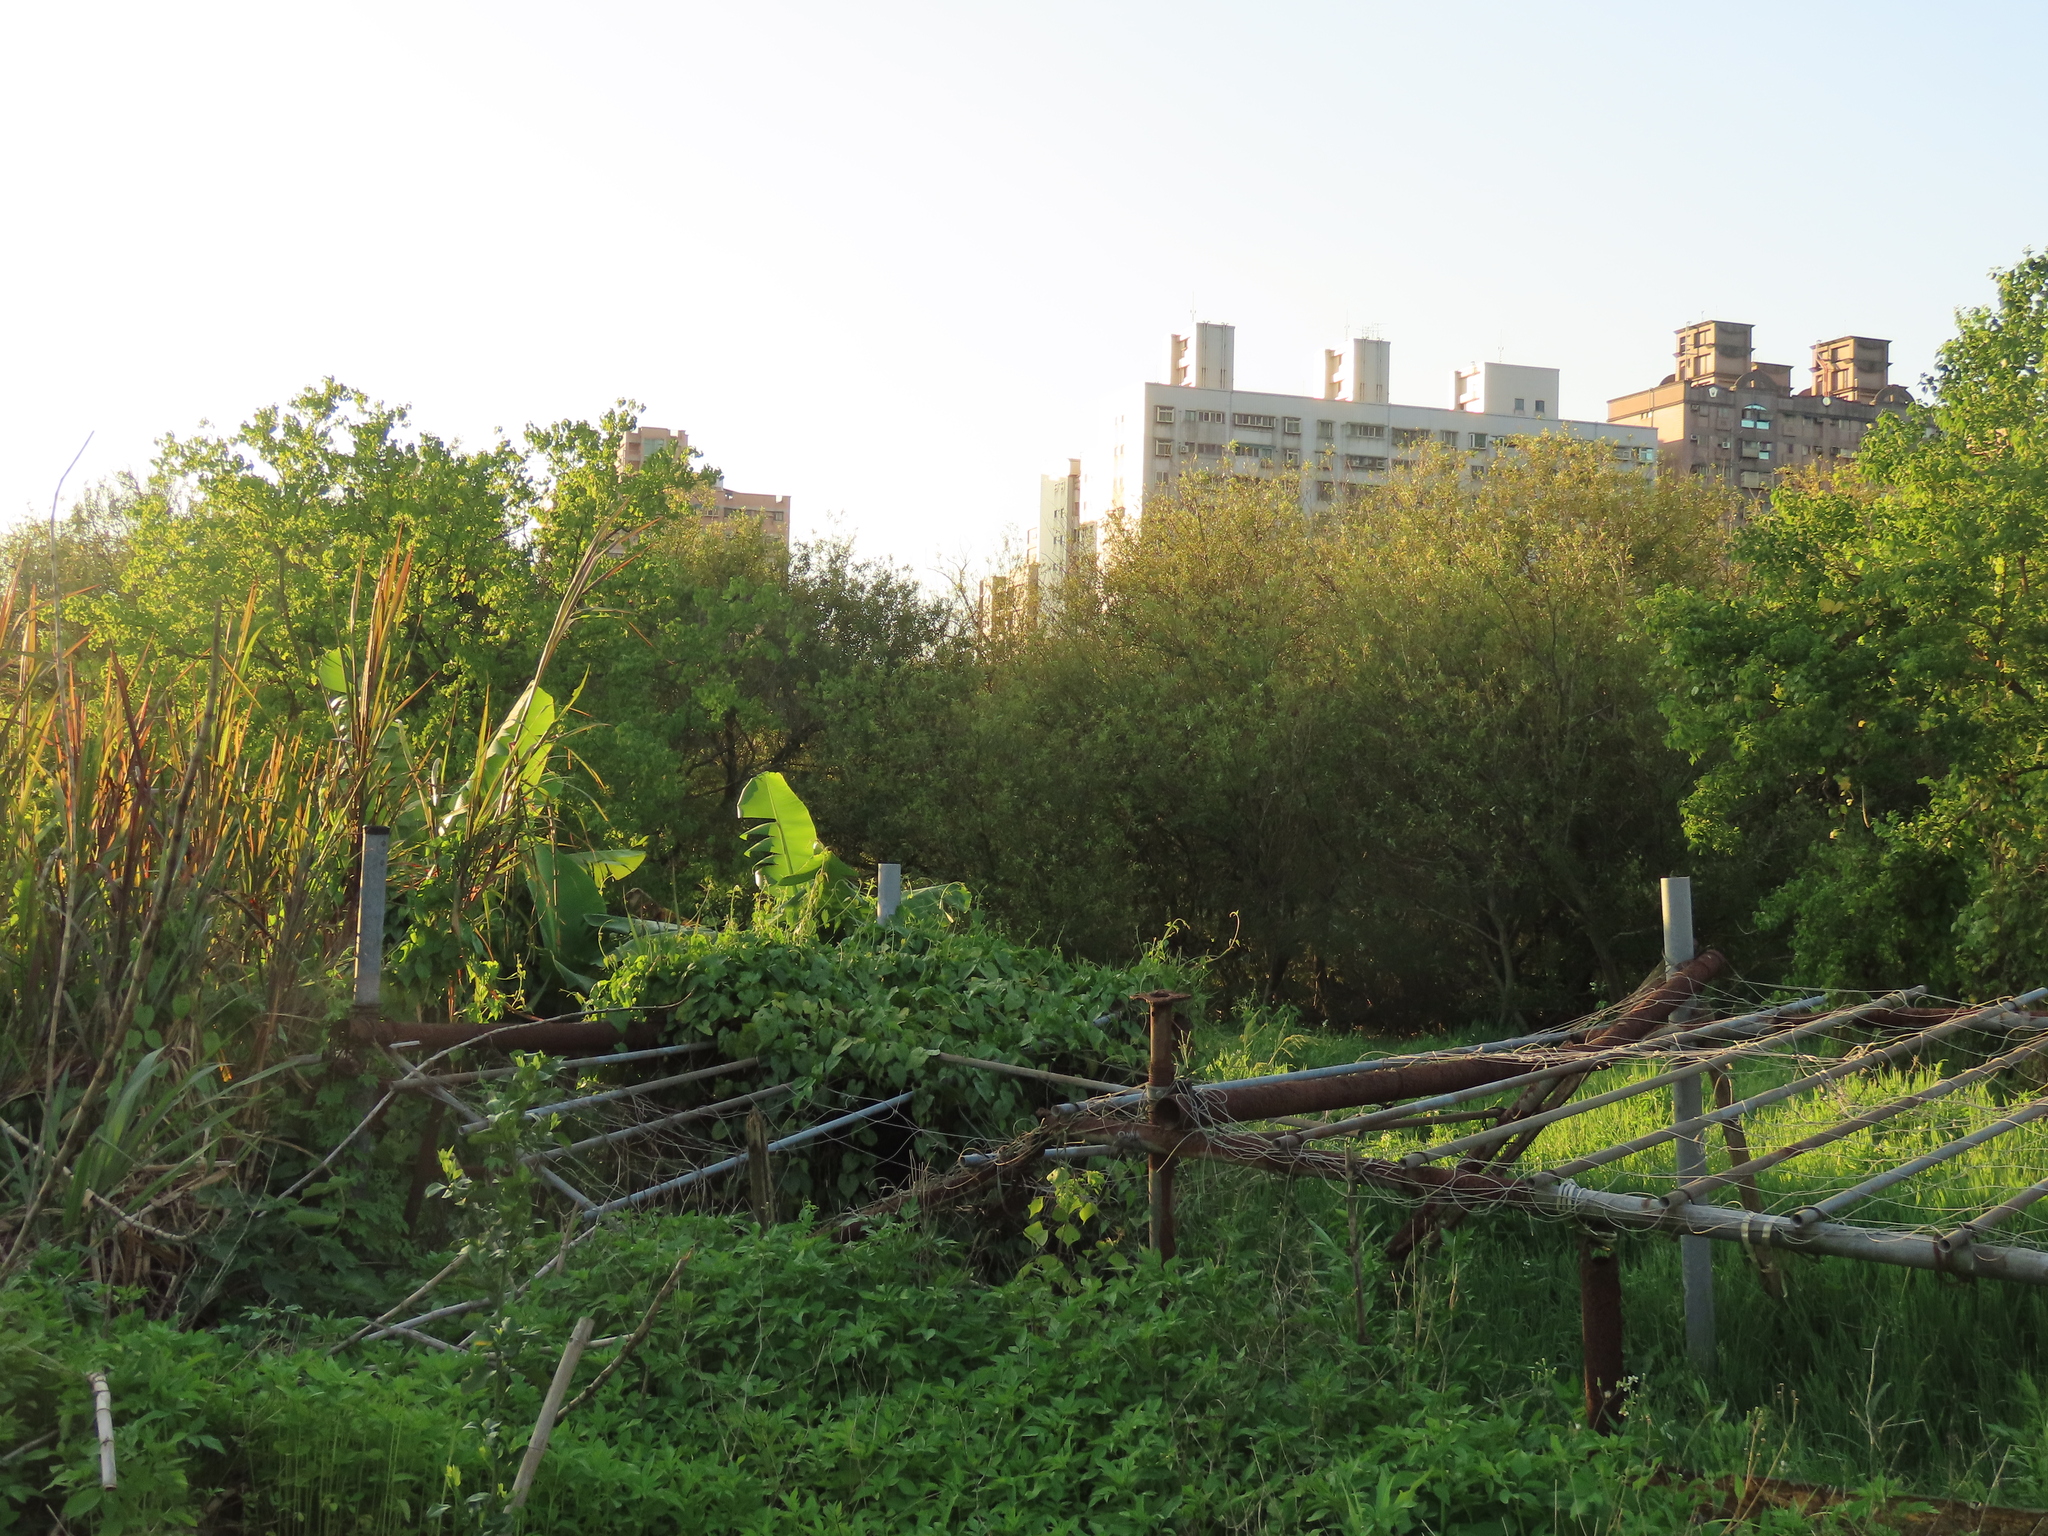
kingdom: Plantae
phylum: Tracheophyta
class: Magnoliopsida
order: Malpighiales
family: Salicaceae
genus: Salix
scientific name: Salix mesnyi
